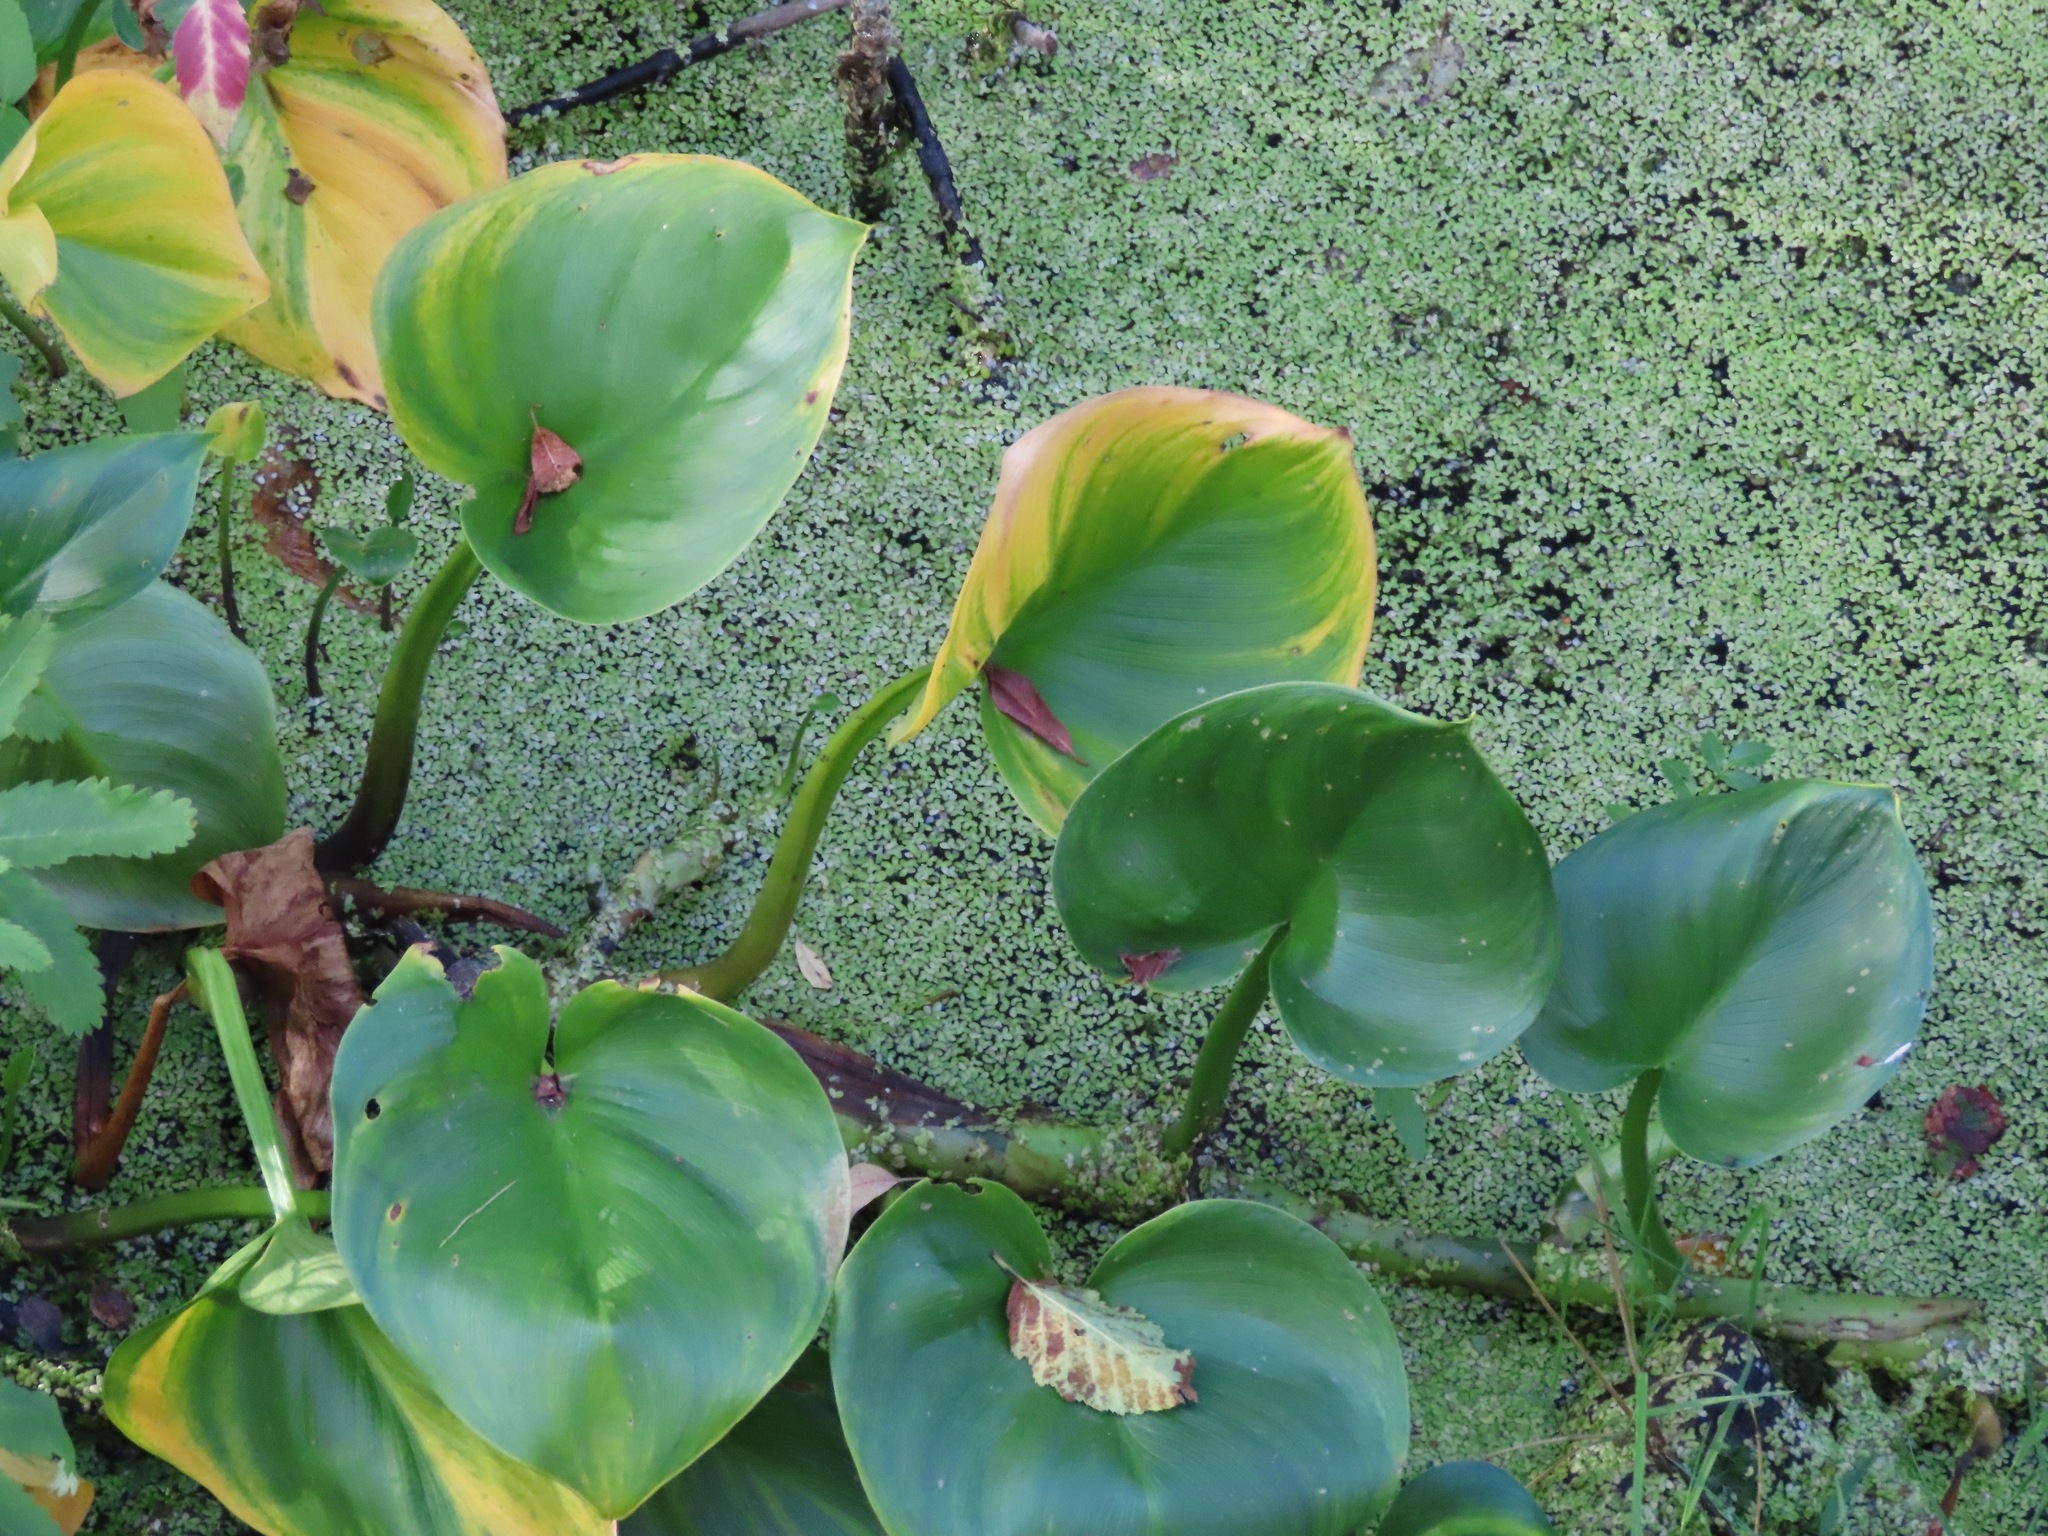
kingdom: Plantae
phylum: Tracheophyta
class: Liliopsida
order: Alismatales
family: Araceae
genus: Calla
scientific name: Calla palustris
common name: Bog arum
